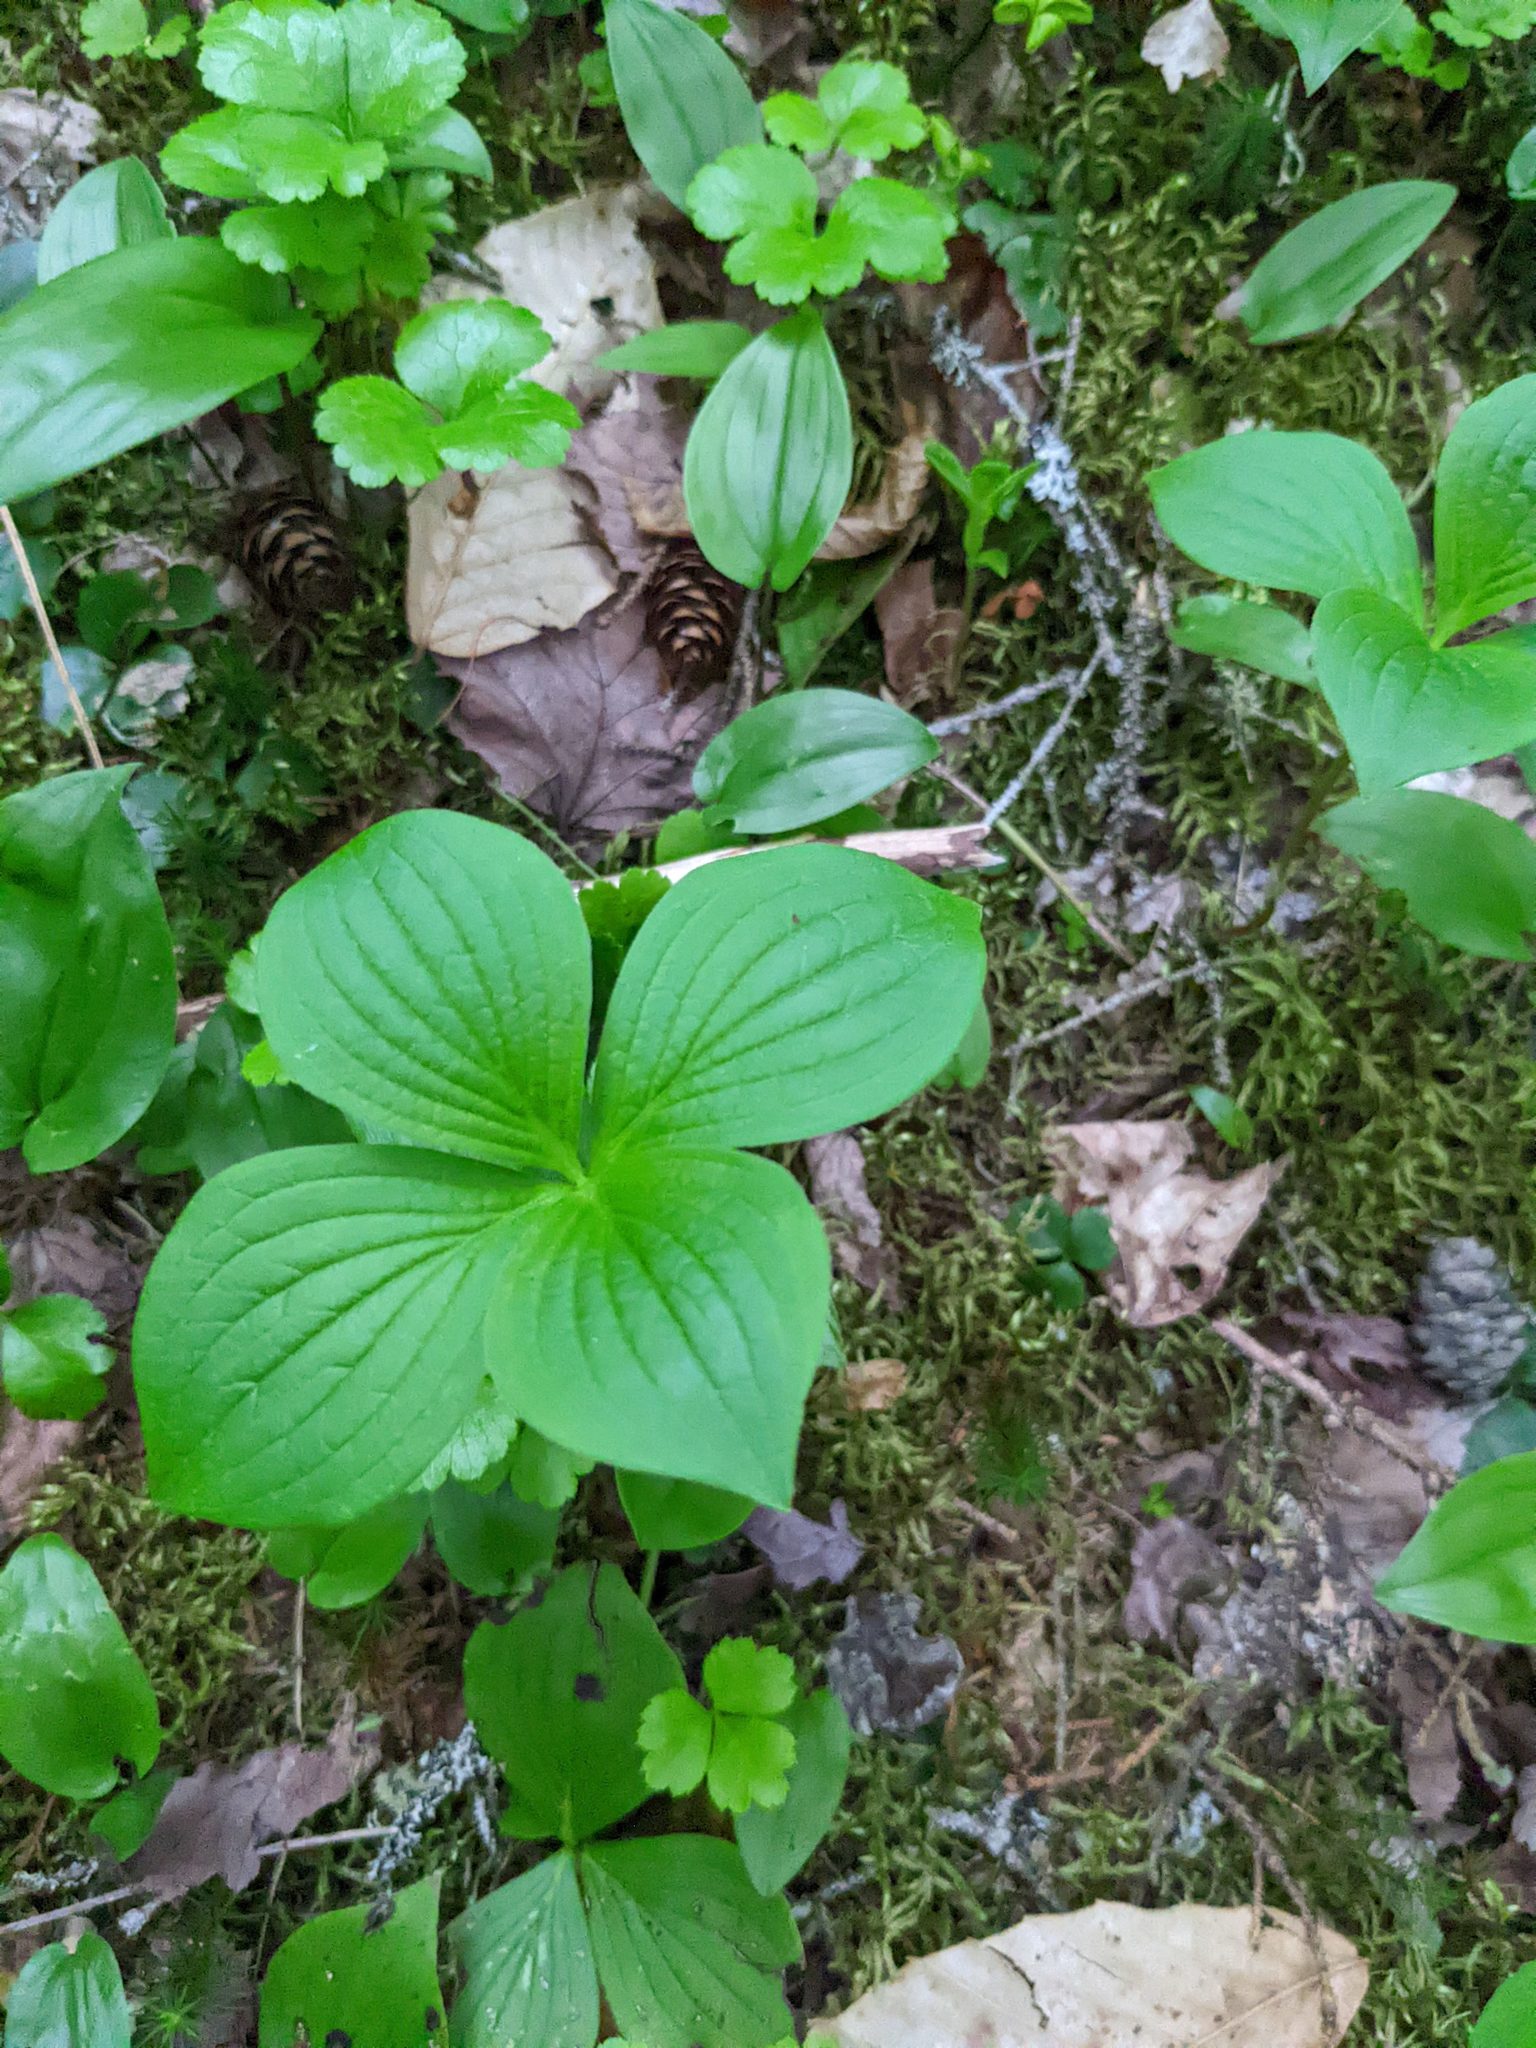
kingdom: Plantae
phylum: Tracheophyta
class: Magnoliopsida
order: Cornales
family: Cornaceae
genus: Cornus
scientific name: Cornus canadensis
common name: Creeping dogwood
